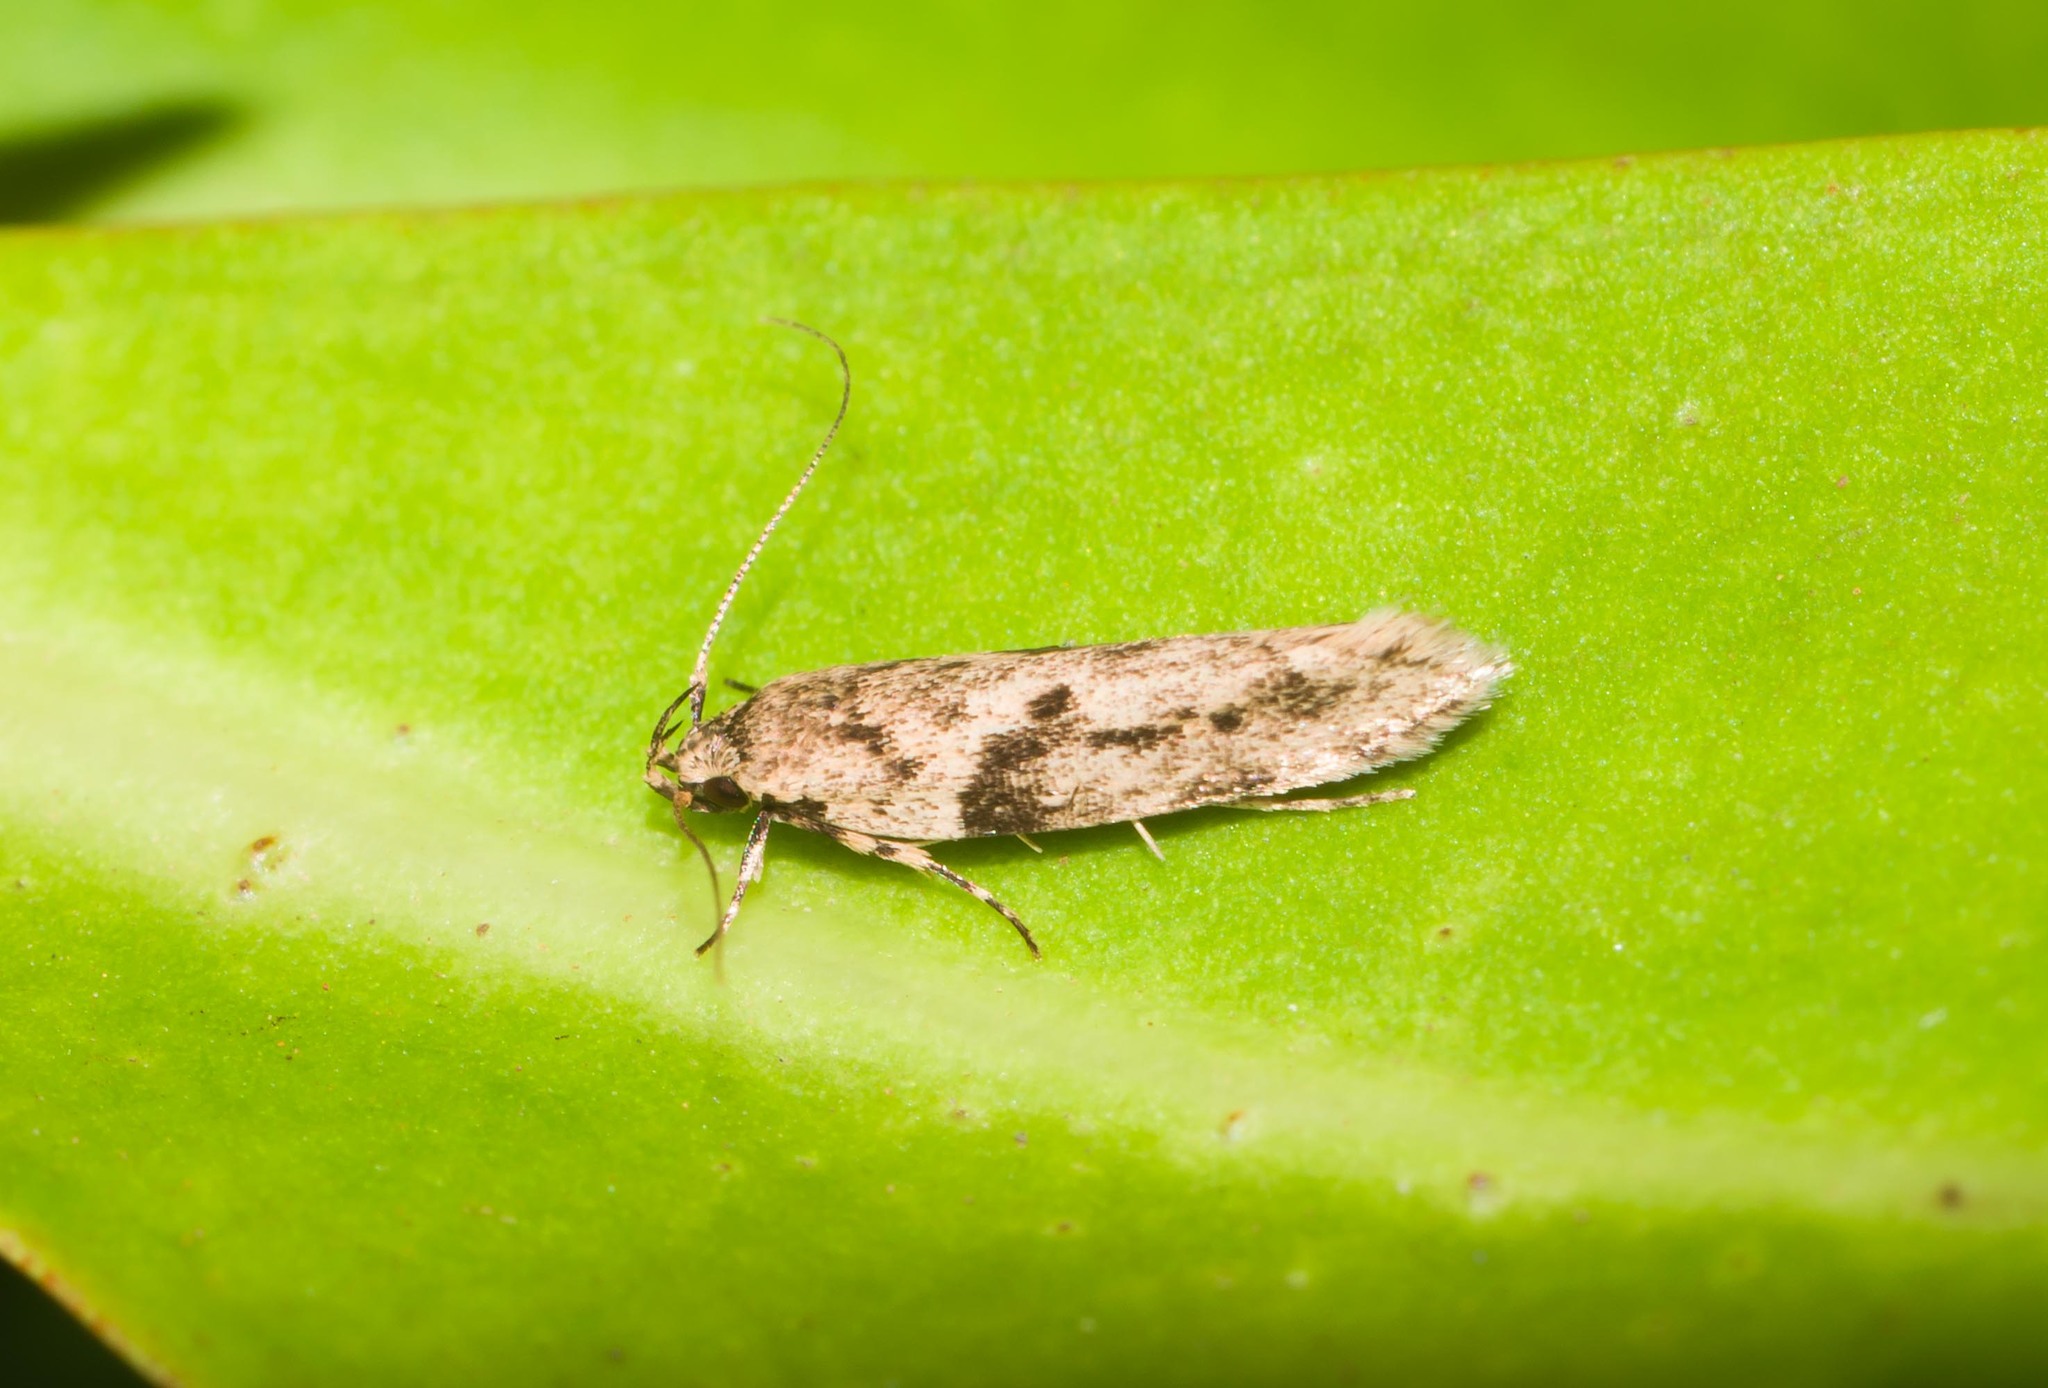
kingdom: Animalia
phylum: Arthropoda
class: Insecta
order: Lepidoptera
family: Cosmopterigidae
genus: Hyposmochoma
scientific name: Hyposmochoma nephelodes
